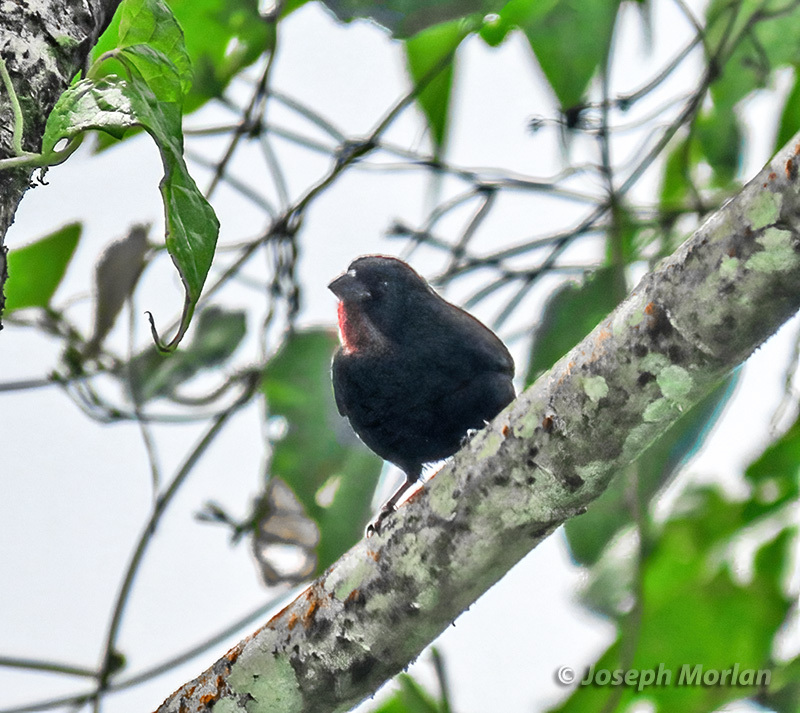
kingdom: Animalia
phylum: Chordata
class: Aves
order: Passeriformes
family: Thraupidae
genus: Loxigilla
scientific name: Loxigilla noctis
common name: Lesser antillean bullfinch
